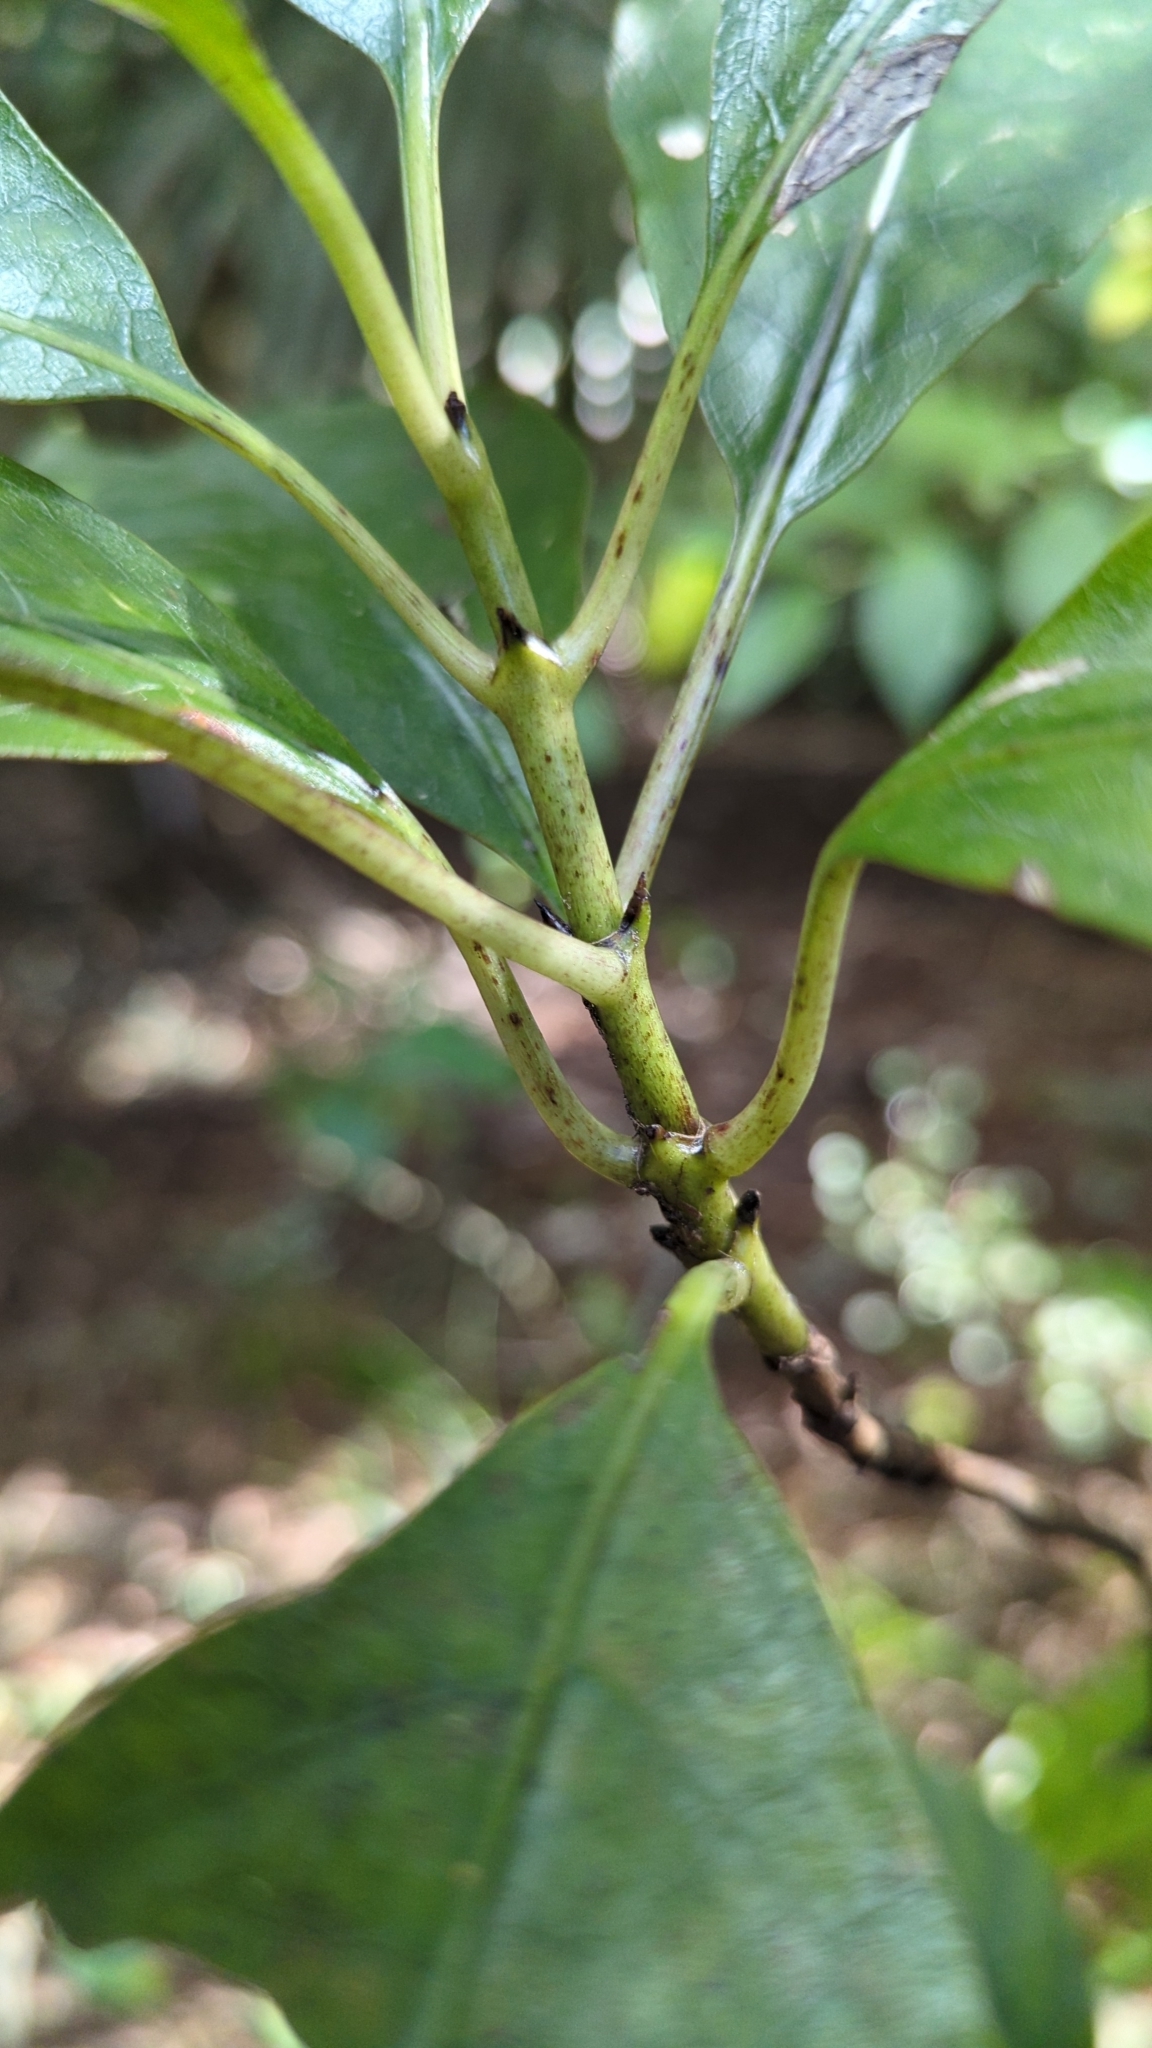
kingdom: Plantae
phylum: Tracheophyta
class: Magnoliopsida
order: Malpighiales
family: Violaceae
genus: Melicytus
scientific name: Melicytus ramiflorus
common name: Mahoe
